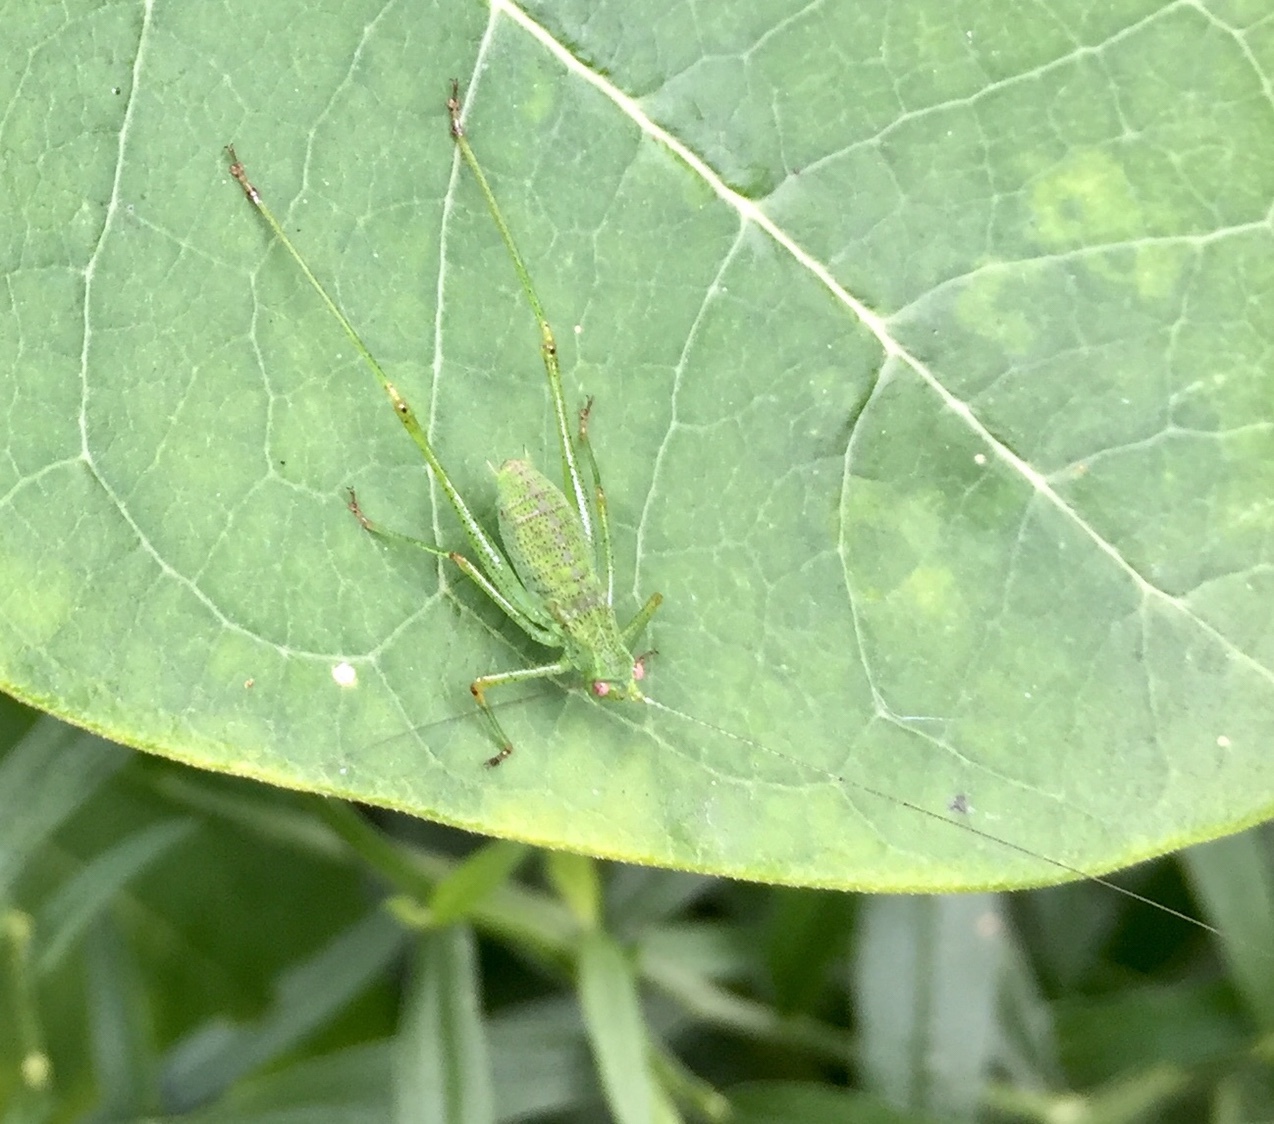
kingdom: Animalia
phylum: Arthropoda
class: Insecta
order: Orthoptera
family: Tettigoniidae
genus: Phaneroptera
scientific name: Phaneroptera nana
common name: Southern sickle bush-cricket
